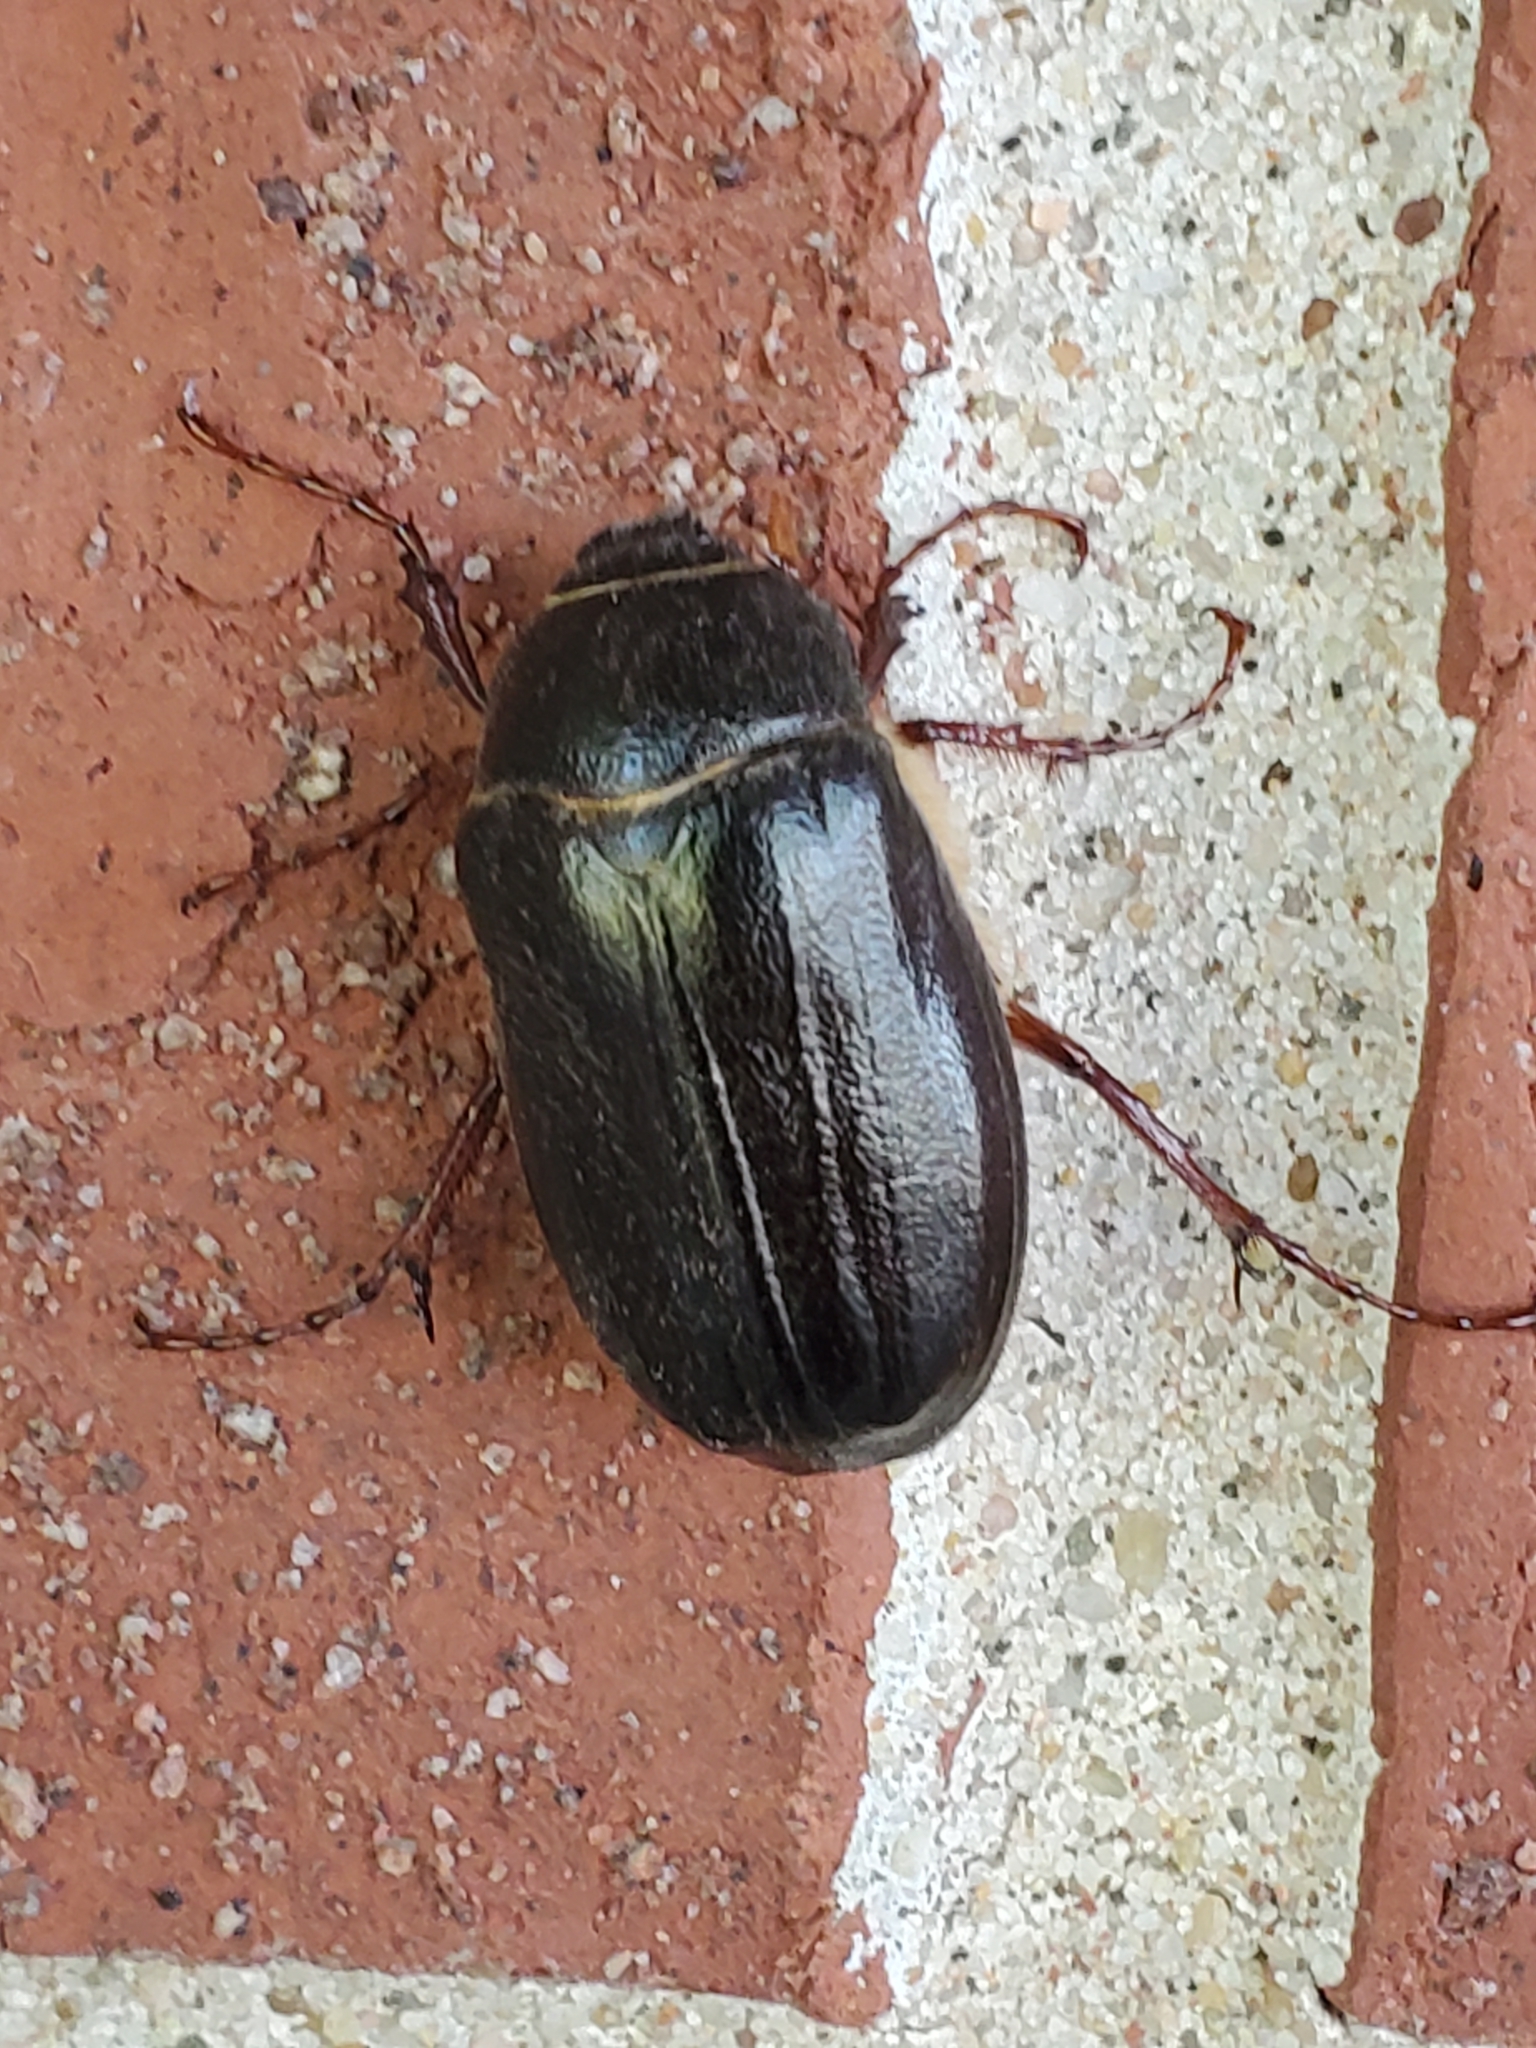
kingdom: Animalia
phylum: Arthropoda
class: Insecta
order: Coleoptera
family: Scarabaeidae
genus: Phyllophaga
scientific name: Phyllophaga vehemens
